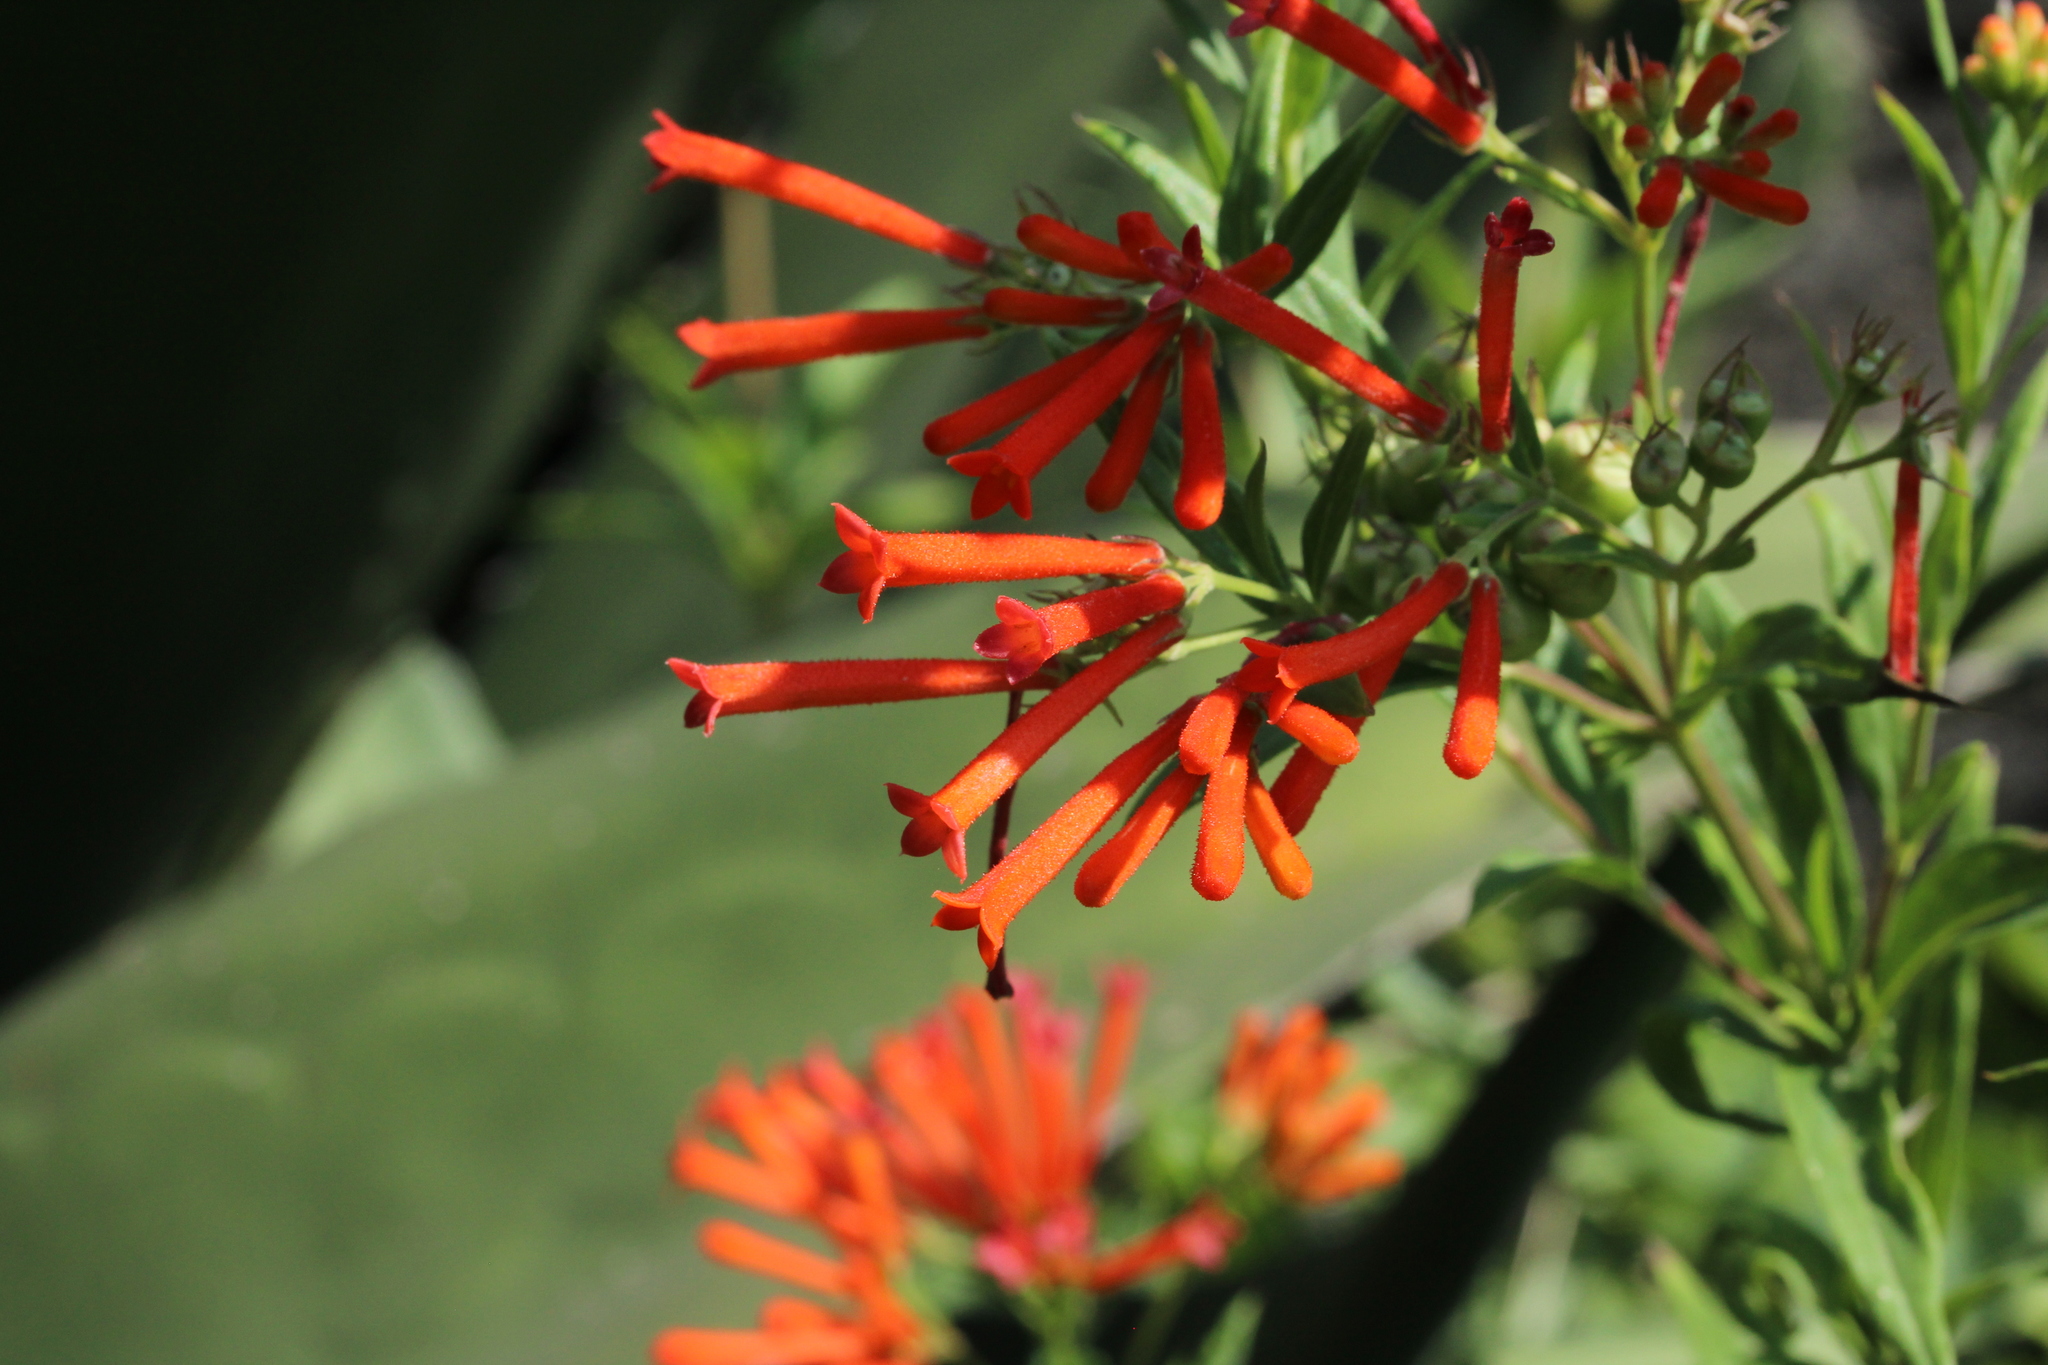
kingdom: Plantae
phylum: Tracheophyta
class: Magnoliopsida
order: Gentianales
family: Rubiaceae
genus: Bouvardia
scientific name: Bouvardia ternifolia
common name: Scarlet bouvardia
